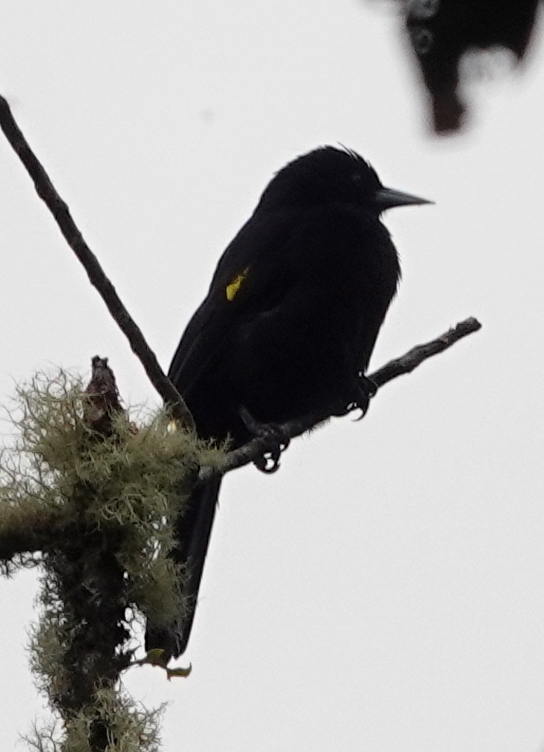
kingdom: Animalia
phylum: Chordata
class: Aves
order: Passeriformes
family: Icteridae
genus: Cacicus
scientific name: Cacicus chrysonotus
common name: Southern mountain cacique
